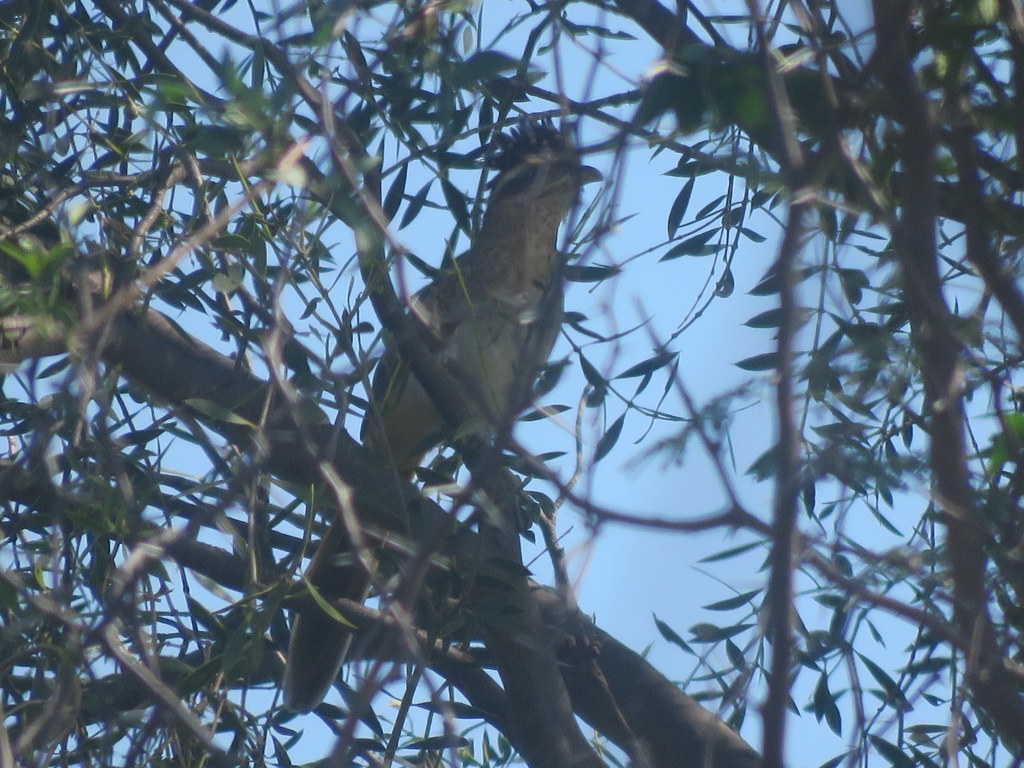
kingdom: Animalia
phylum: Chordata
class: Aves
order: Cuculiformes
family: Cuculidae
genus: Tapera
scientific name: Tapera naevia
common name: Striped cuckoo
